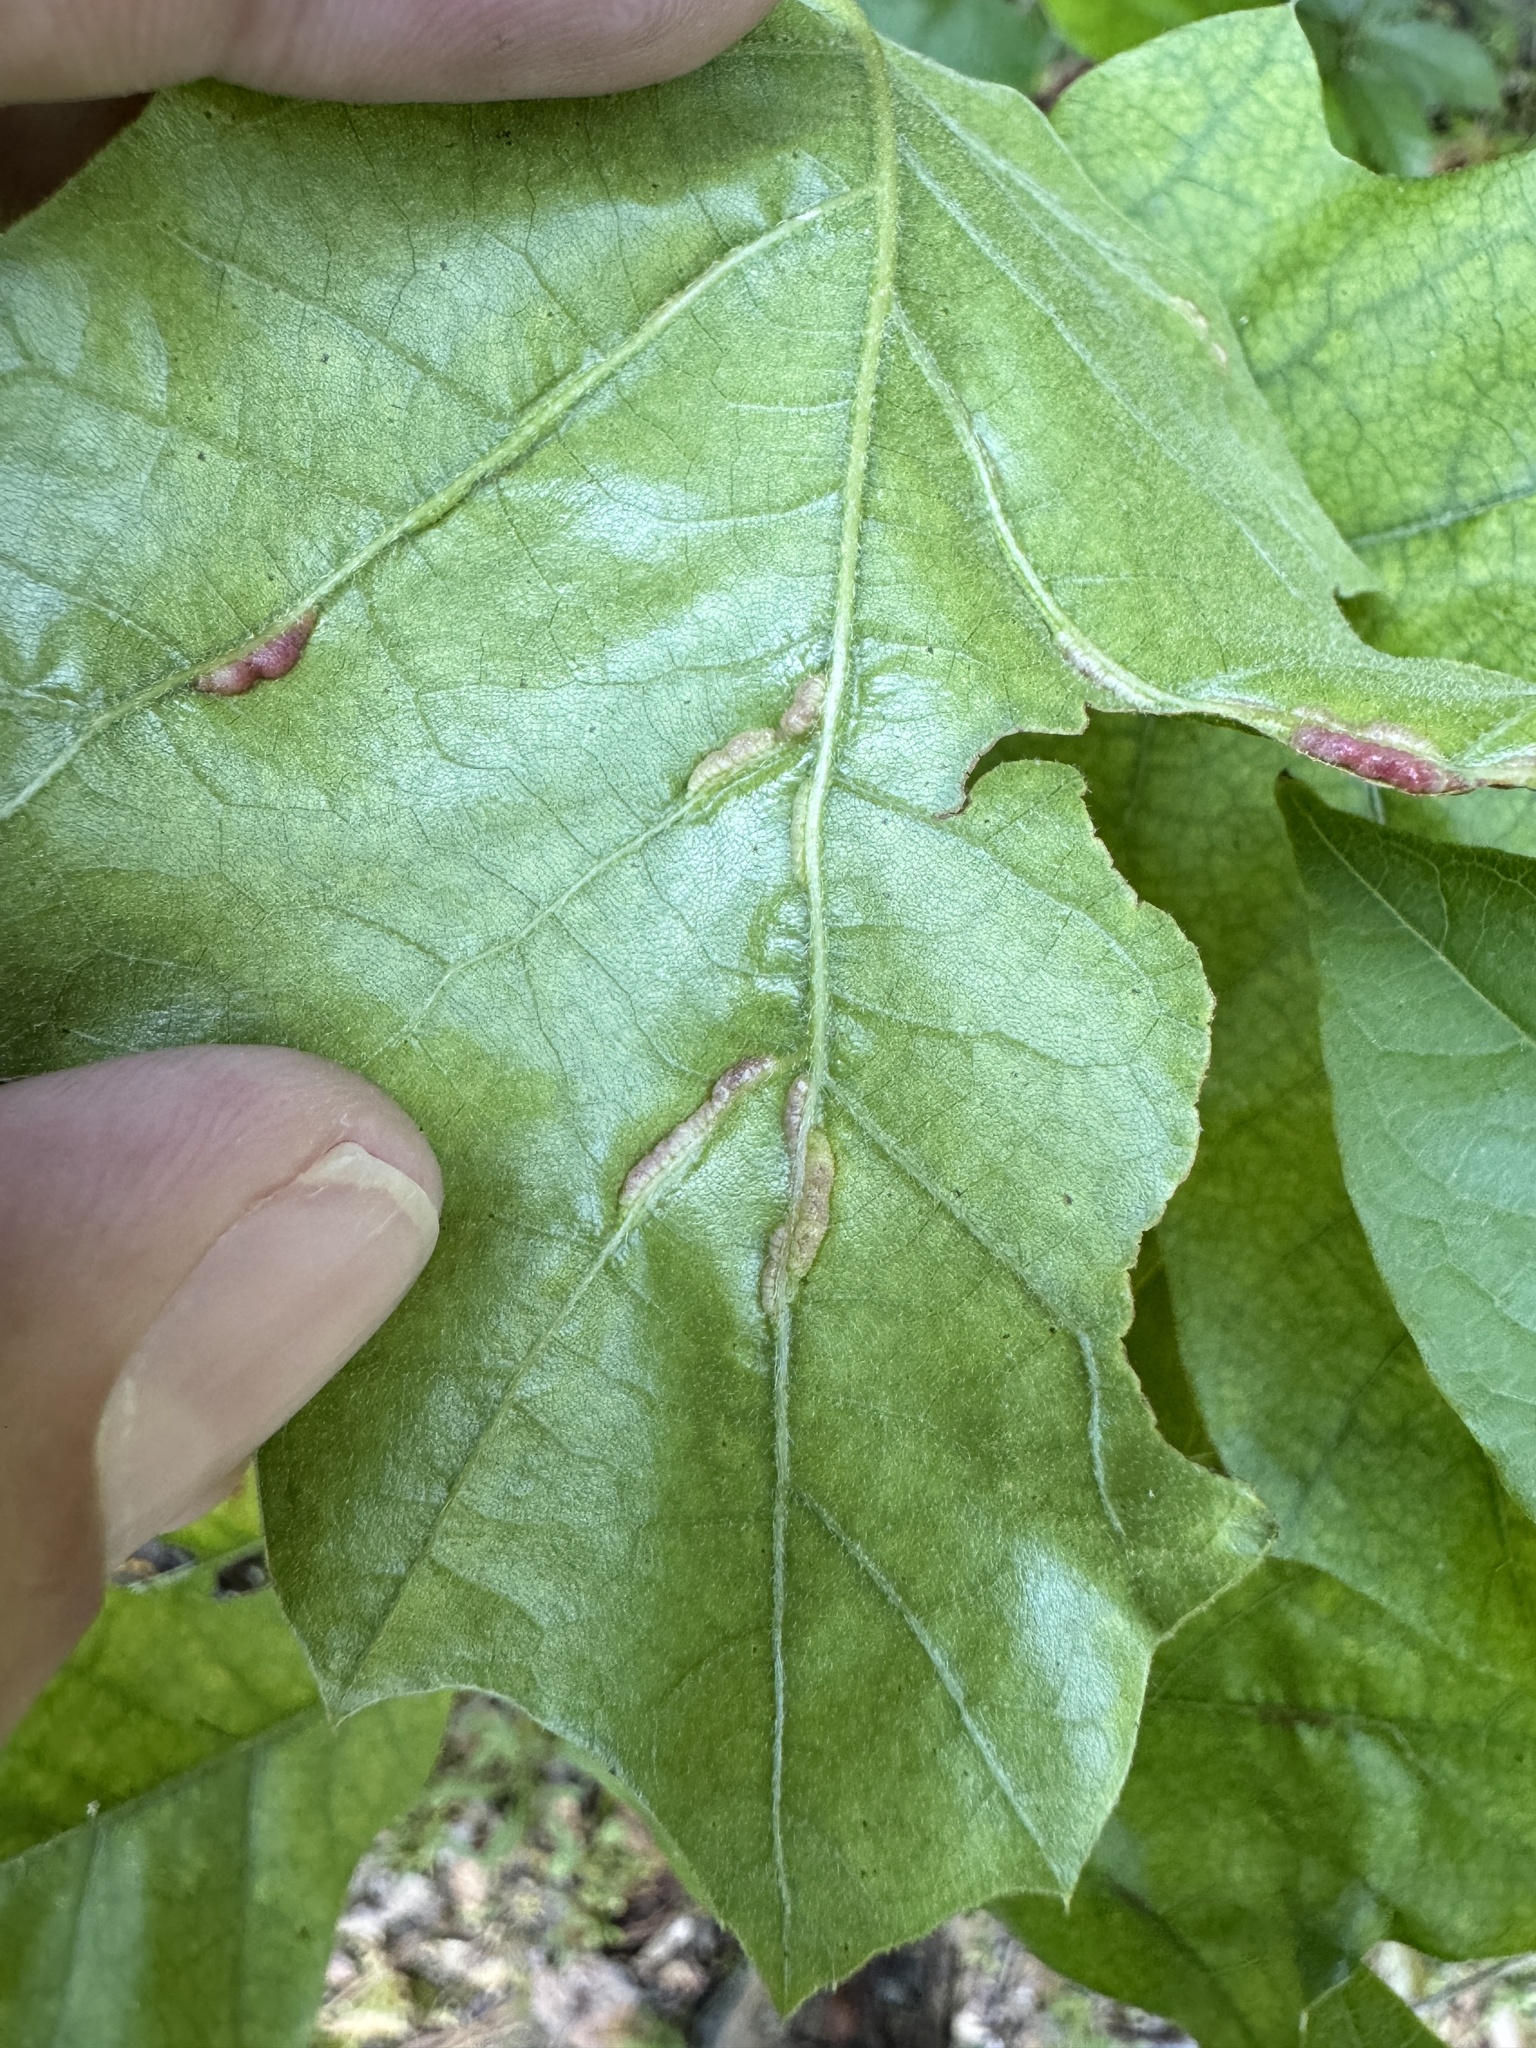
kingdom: Animalia
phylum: Arthropoda
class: Insecta
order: Diptera
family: Cecidomyiidae
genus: Macrodiplosis
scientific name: Macrodiplosis q-orucum
